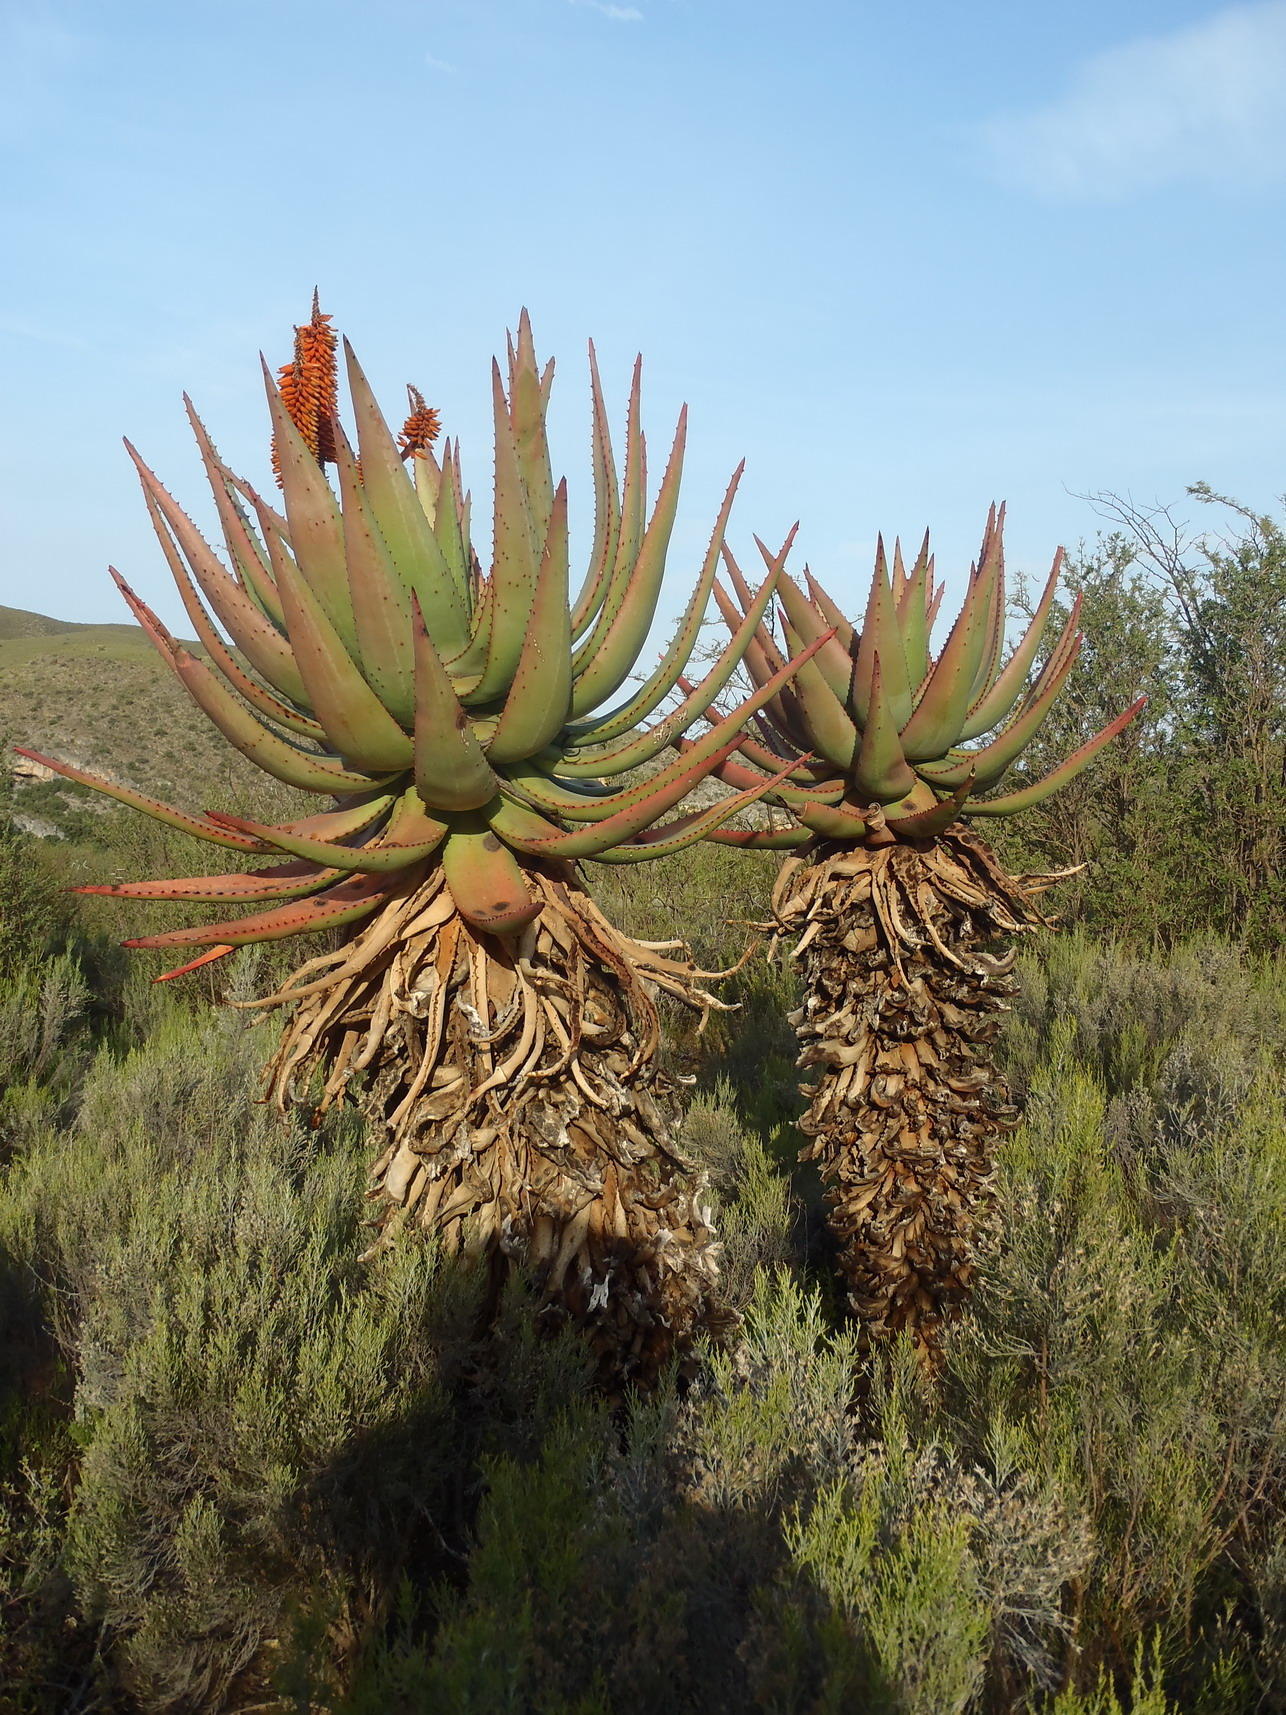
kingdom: Plantae
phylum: Tracheophyta
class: Liliopsida
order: Asparagales
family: Asphodelaceae
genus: Aloe
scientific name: Aloe ferox
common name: Bitter aloe
